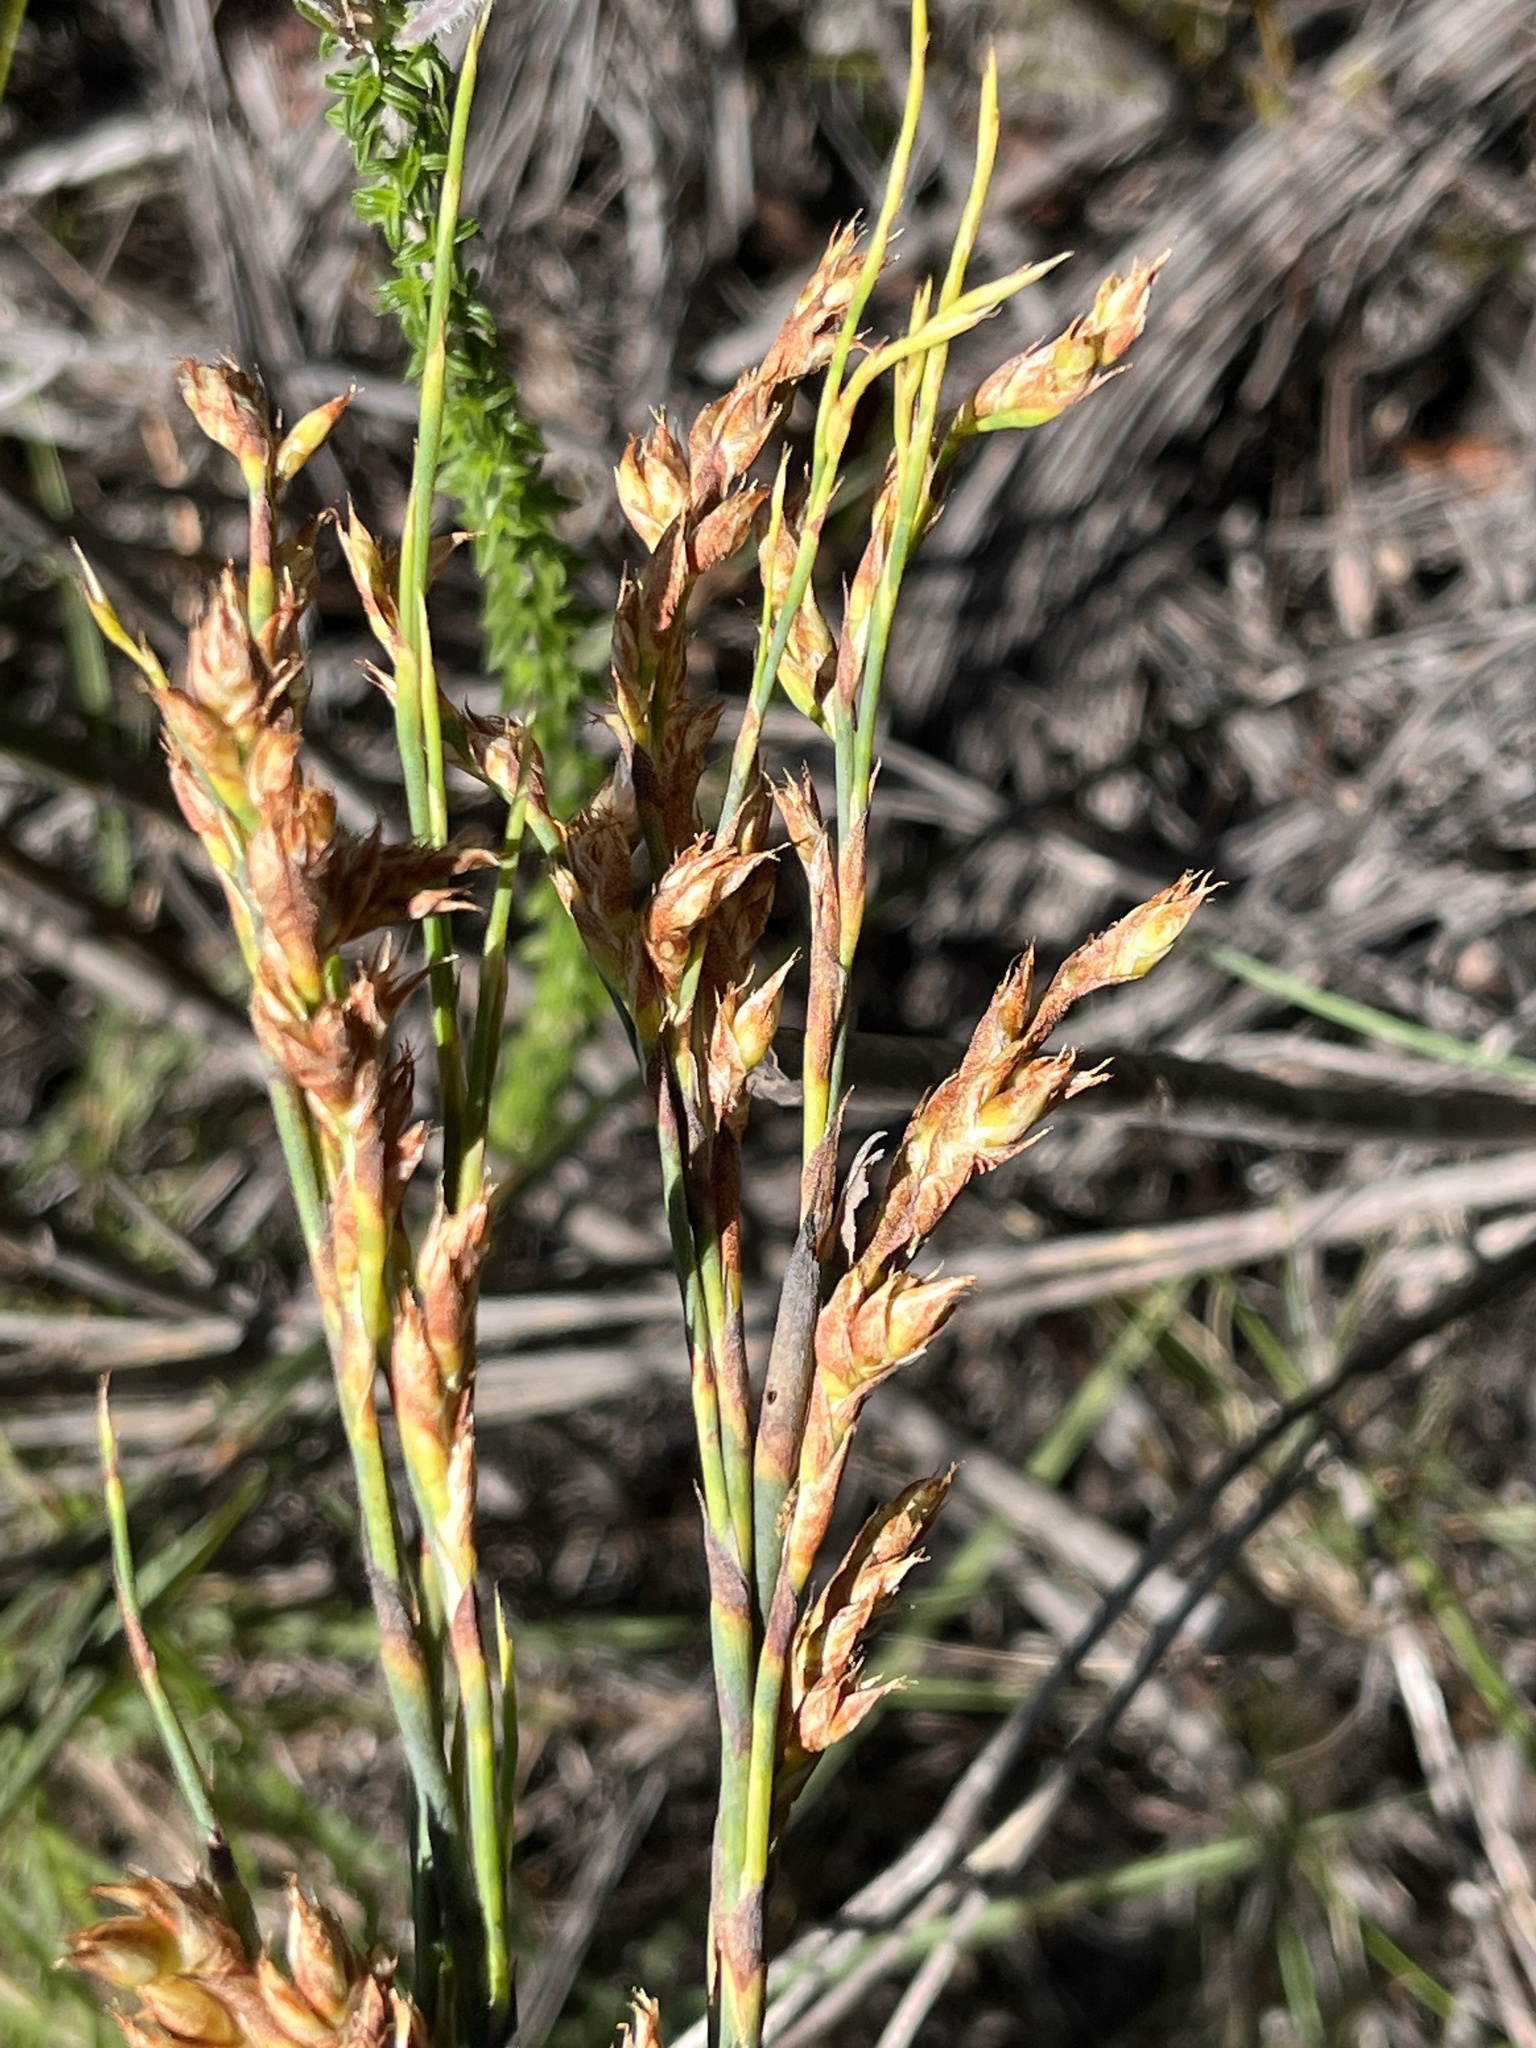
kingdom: Plantae
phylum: Tracheophyta
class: Liliopsida
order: Poales
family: Restionaceae
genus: Cannomois
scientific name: Cannomois virgata
